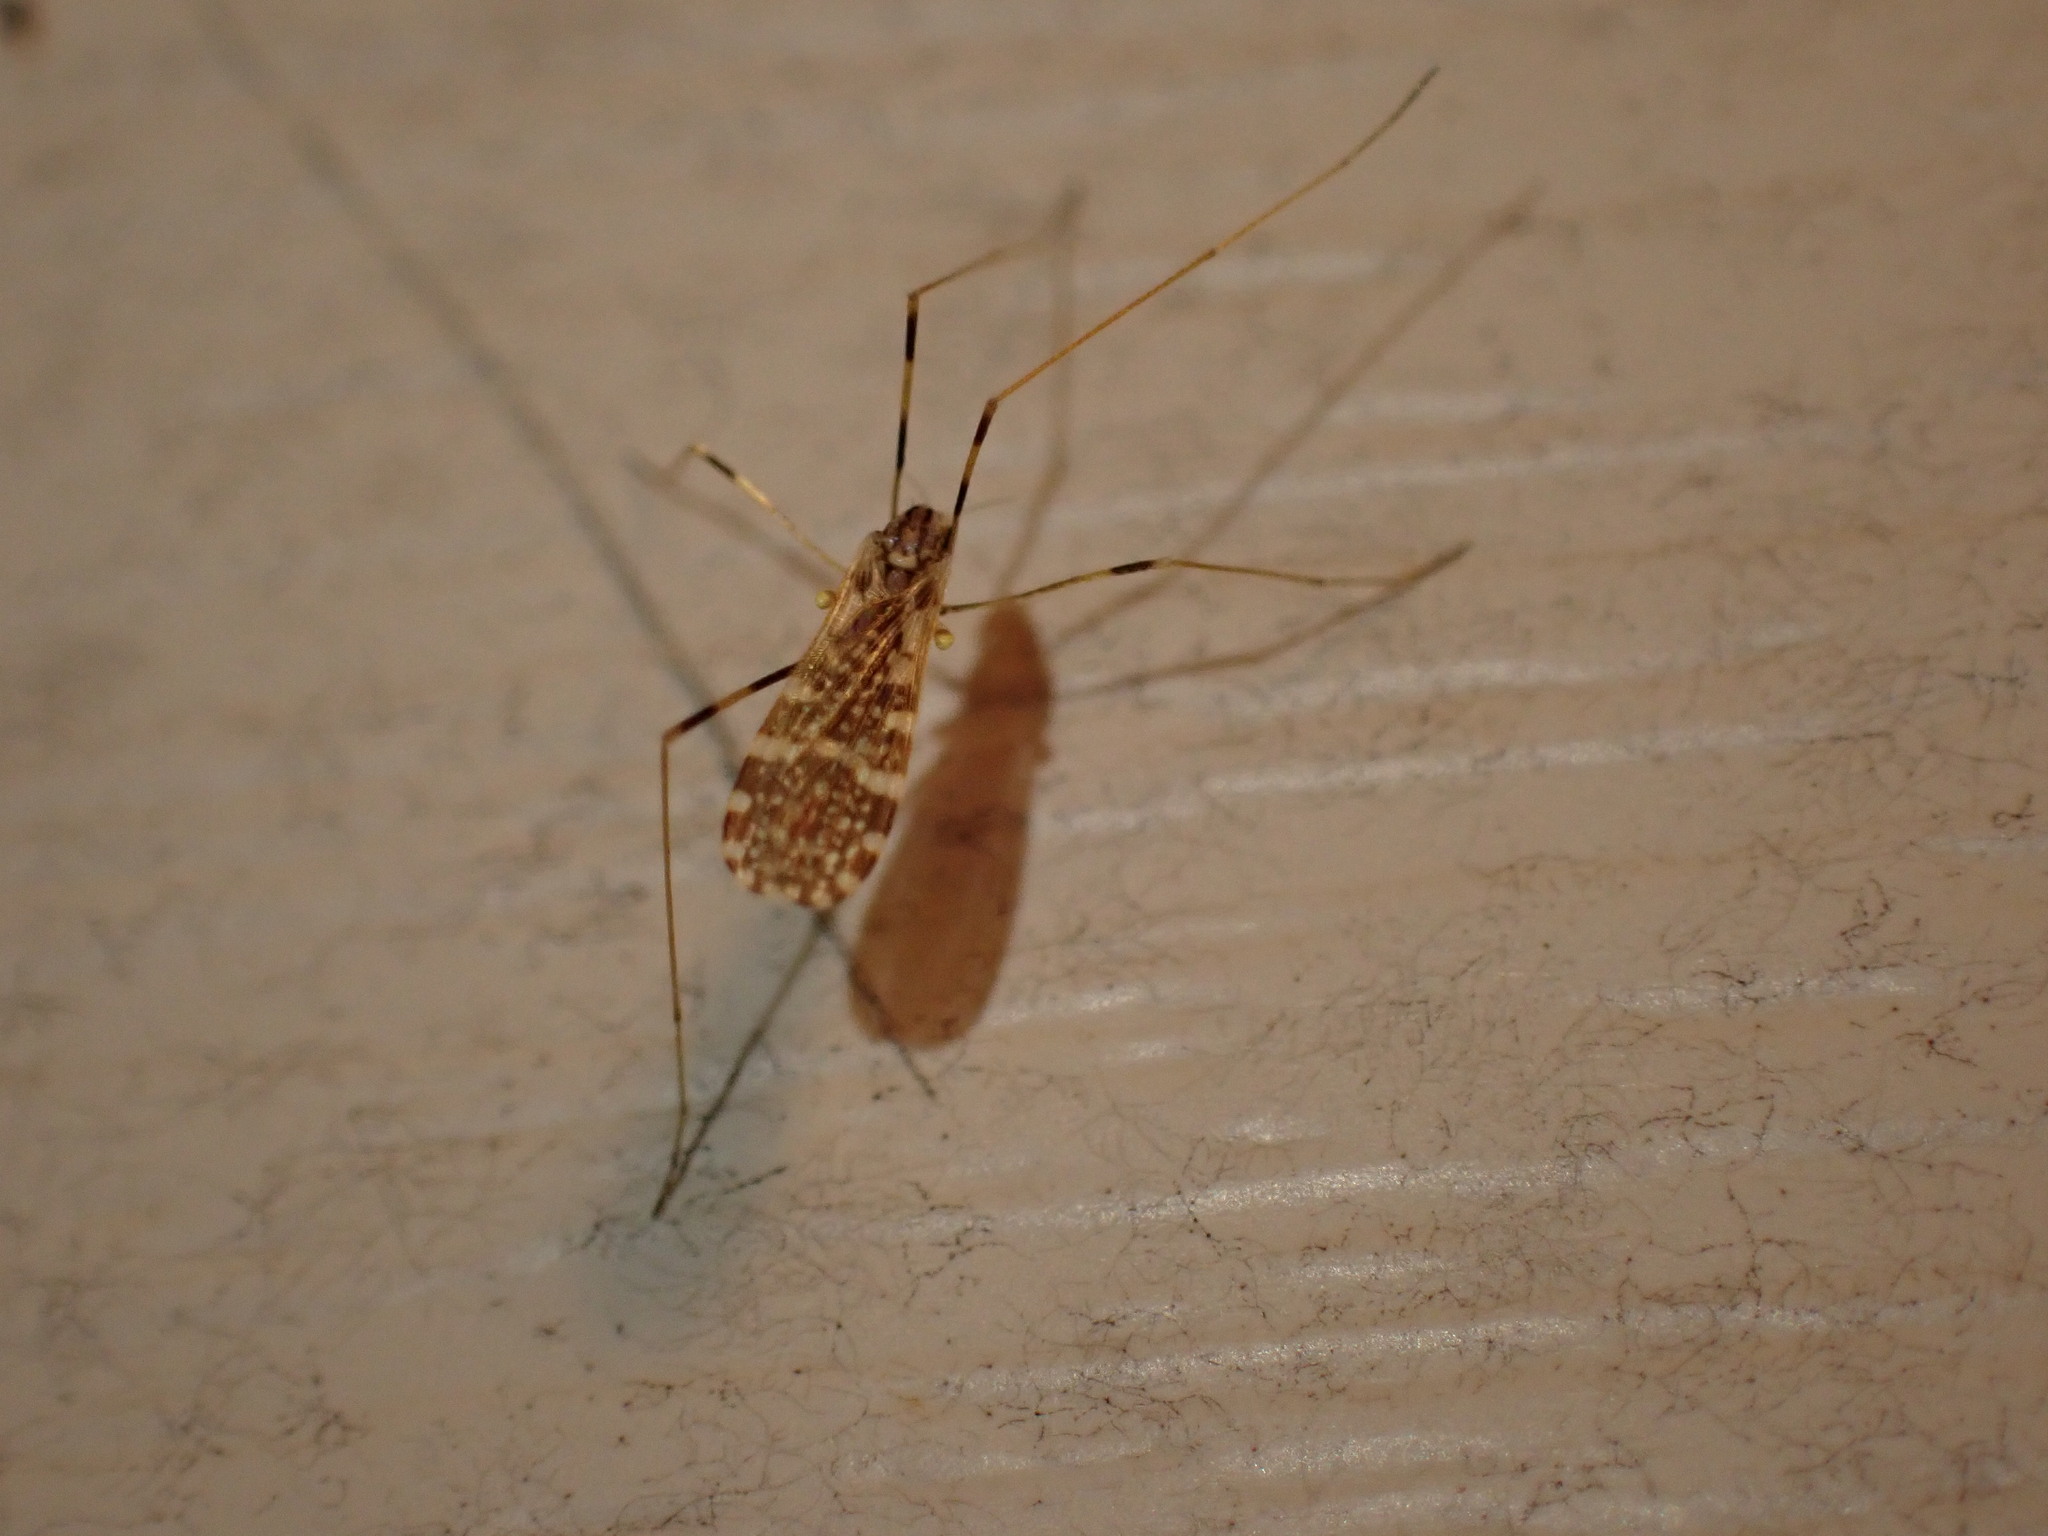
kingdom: Animalia
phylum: Arthropoda
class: Insecta
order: Diptera
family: Limoniidae
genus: Erioptera
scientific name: Erioptera caliptera
